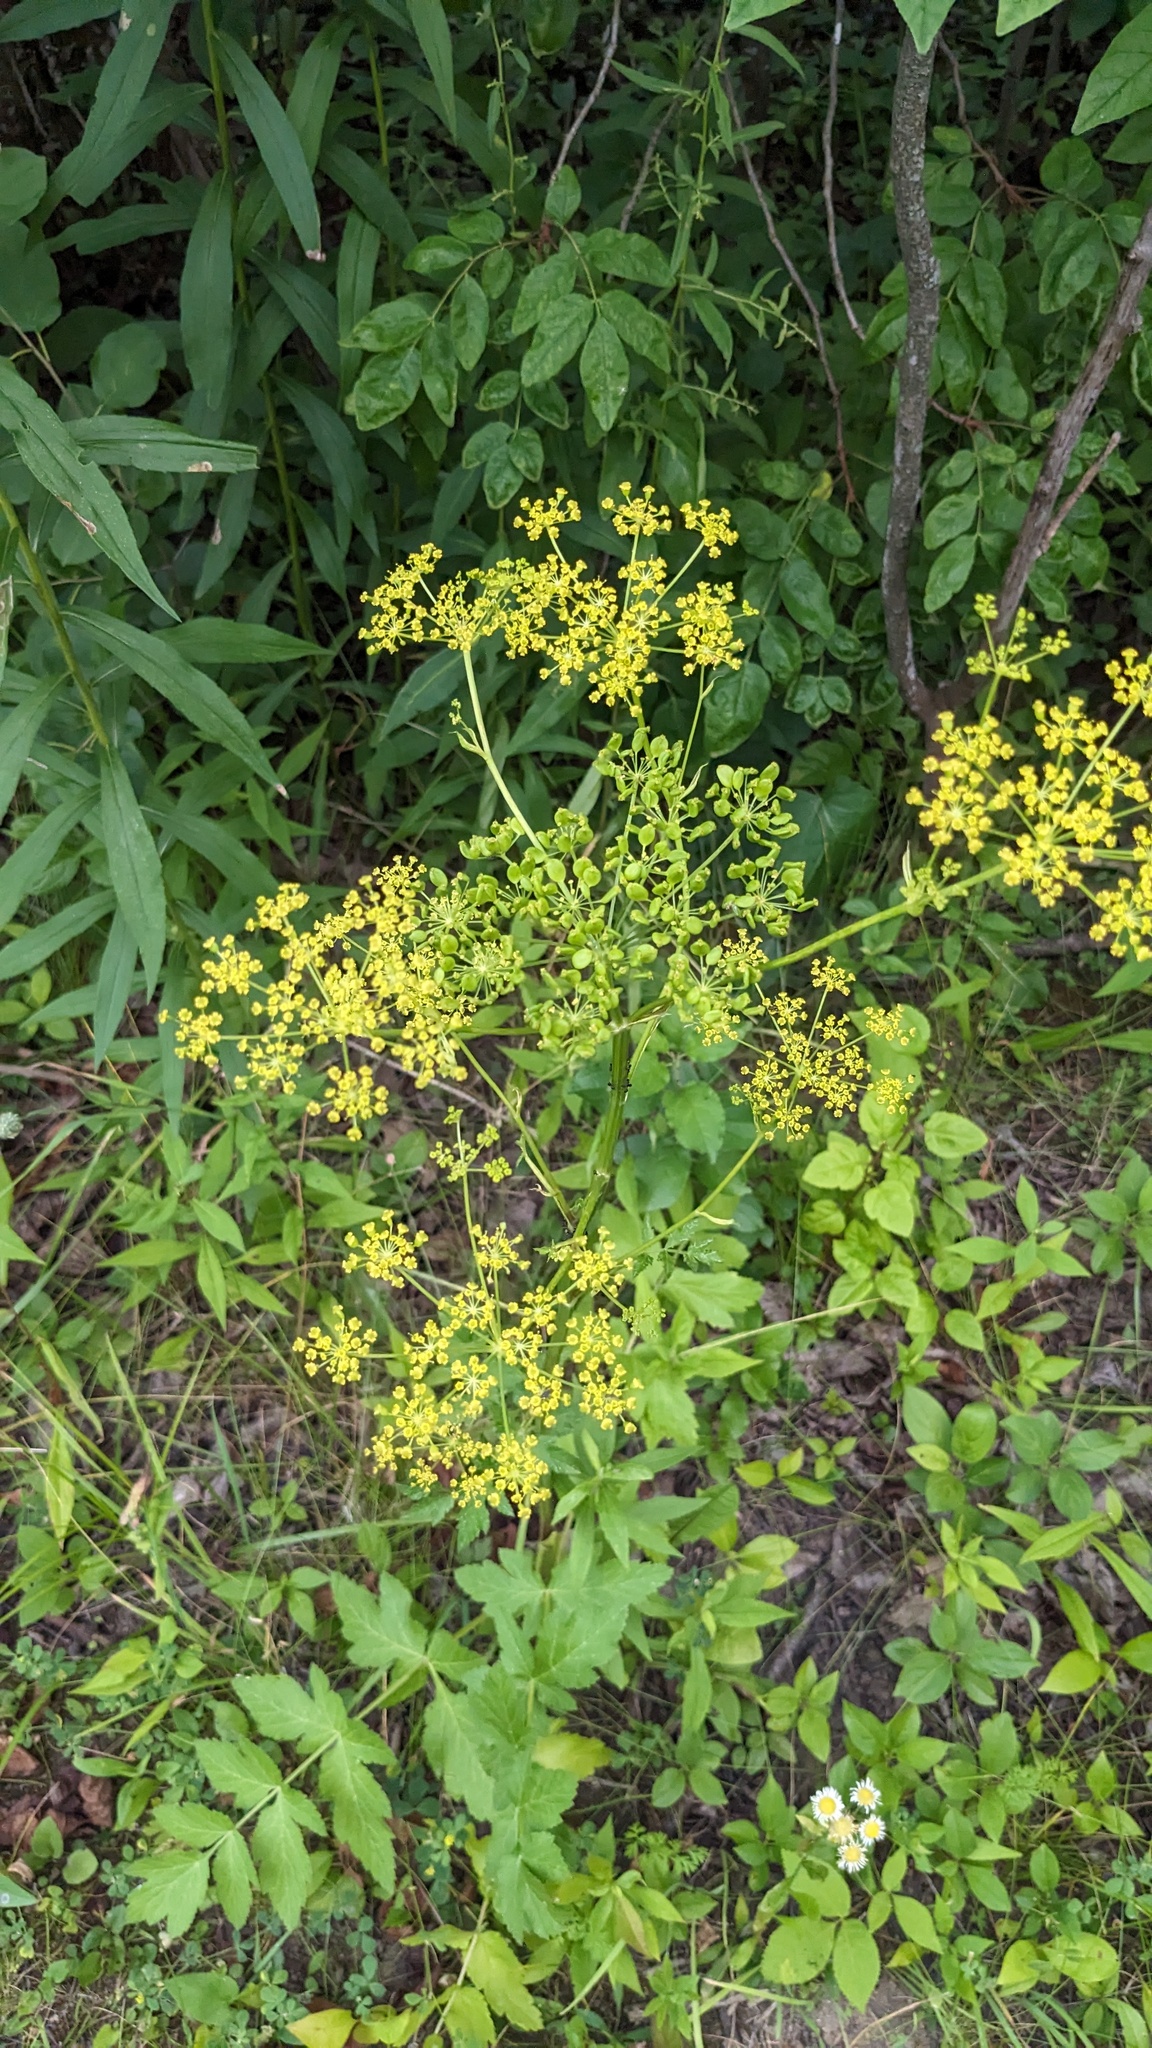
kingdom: Plantae
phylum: Tracheophyta
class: Magnoliopsida
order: Apiales
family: Apiaceae
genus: Pastinaca
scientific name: Pastinaca sativa
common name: Wild parsnip
